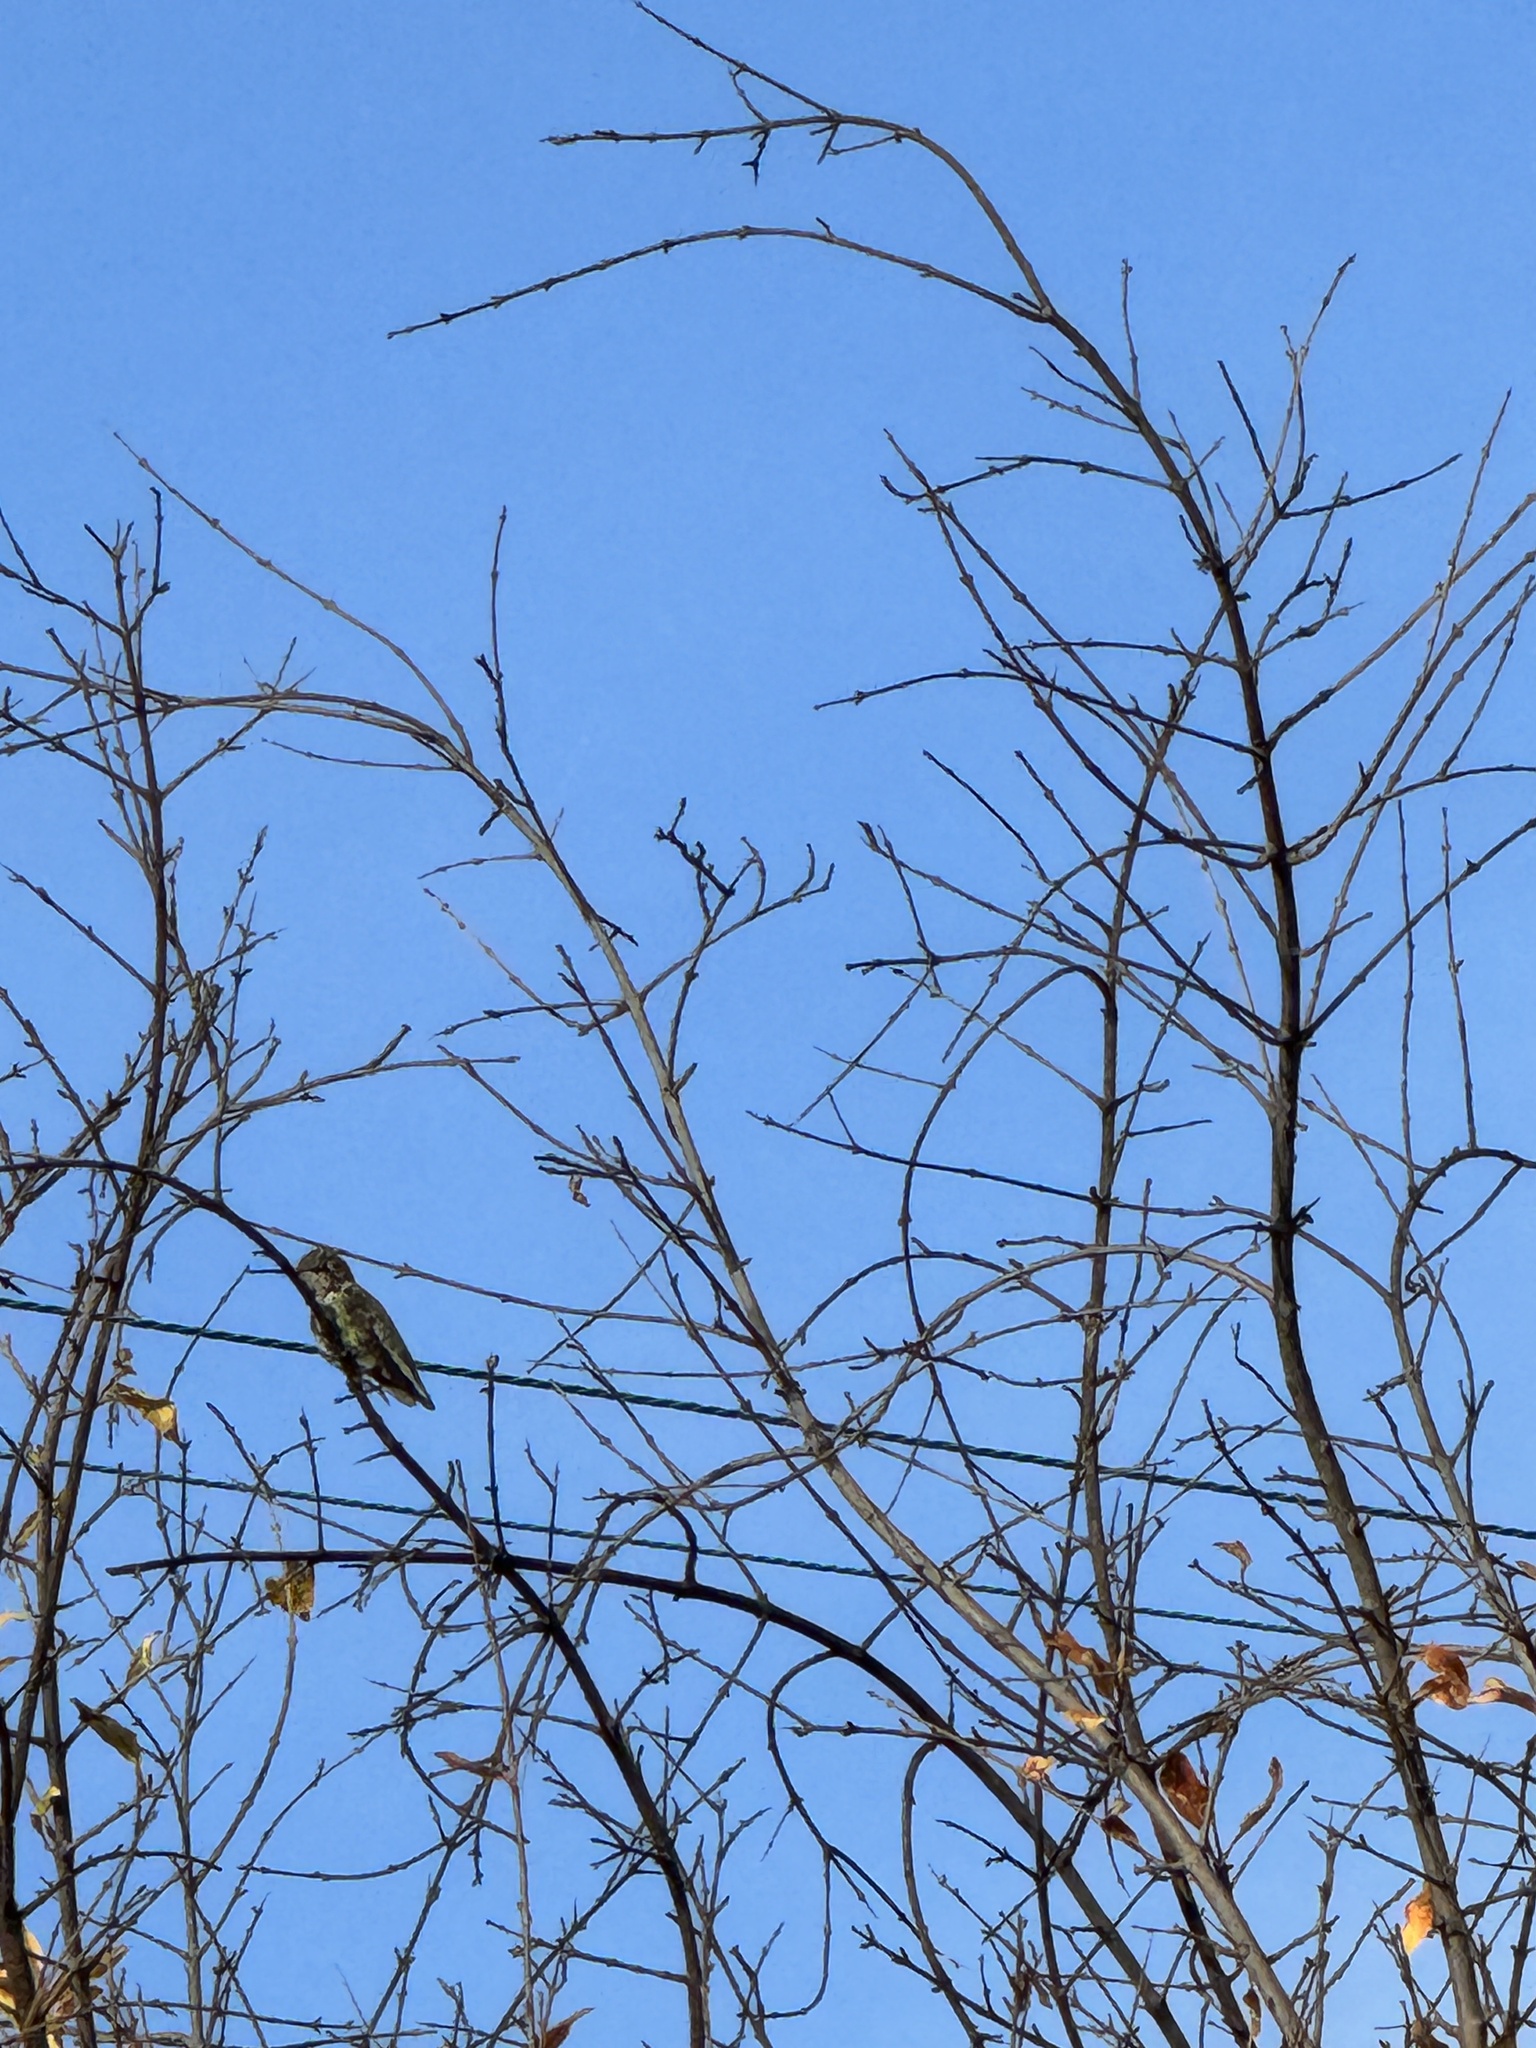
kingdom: Animalia
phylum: Chordata
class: Aves
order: Apodiformes
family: Trochilidae
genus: Calypte
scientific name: Calypte anna
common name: Anna's hummingbird
